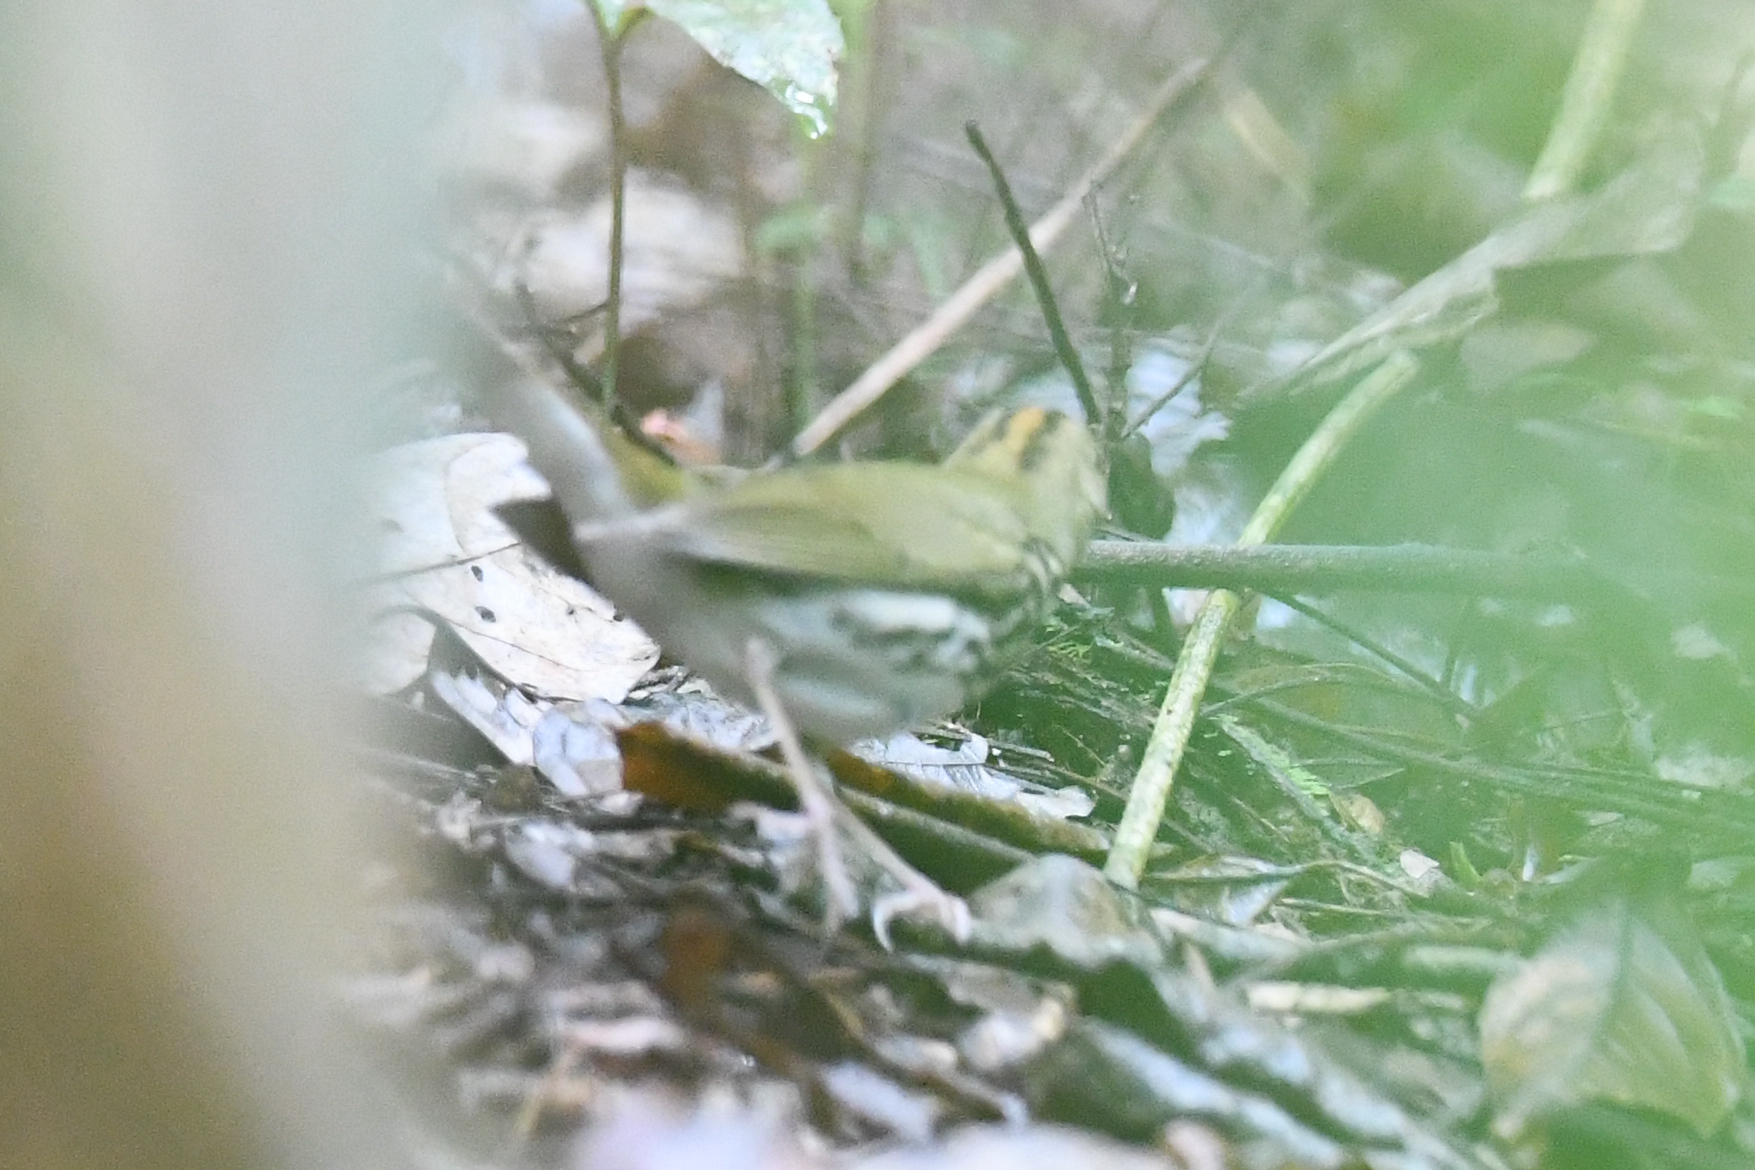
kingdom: Animalia
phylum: Chordata
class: Aves
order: Passeriformes
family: Parulidae
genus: Seiurus
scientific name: Seiurus aurocapilla
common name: Ovenbird
